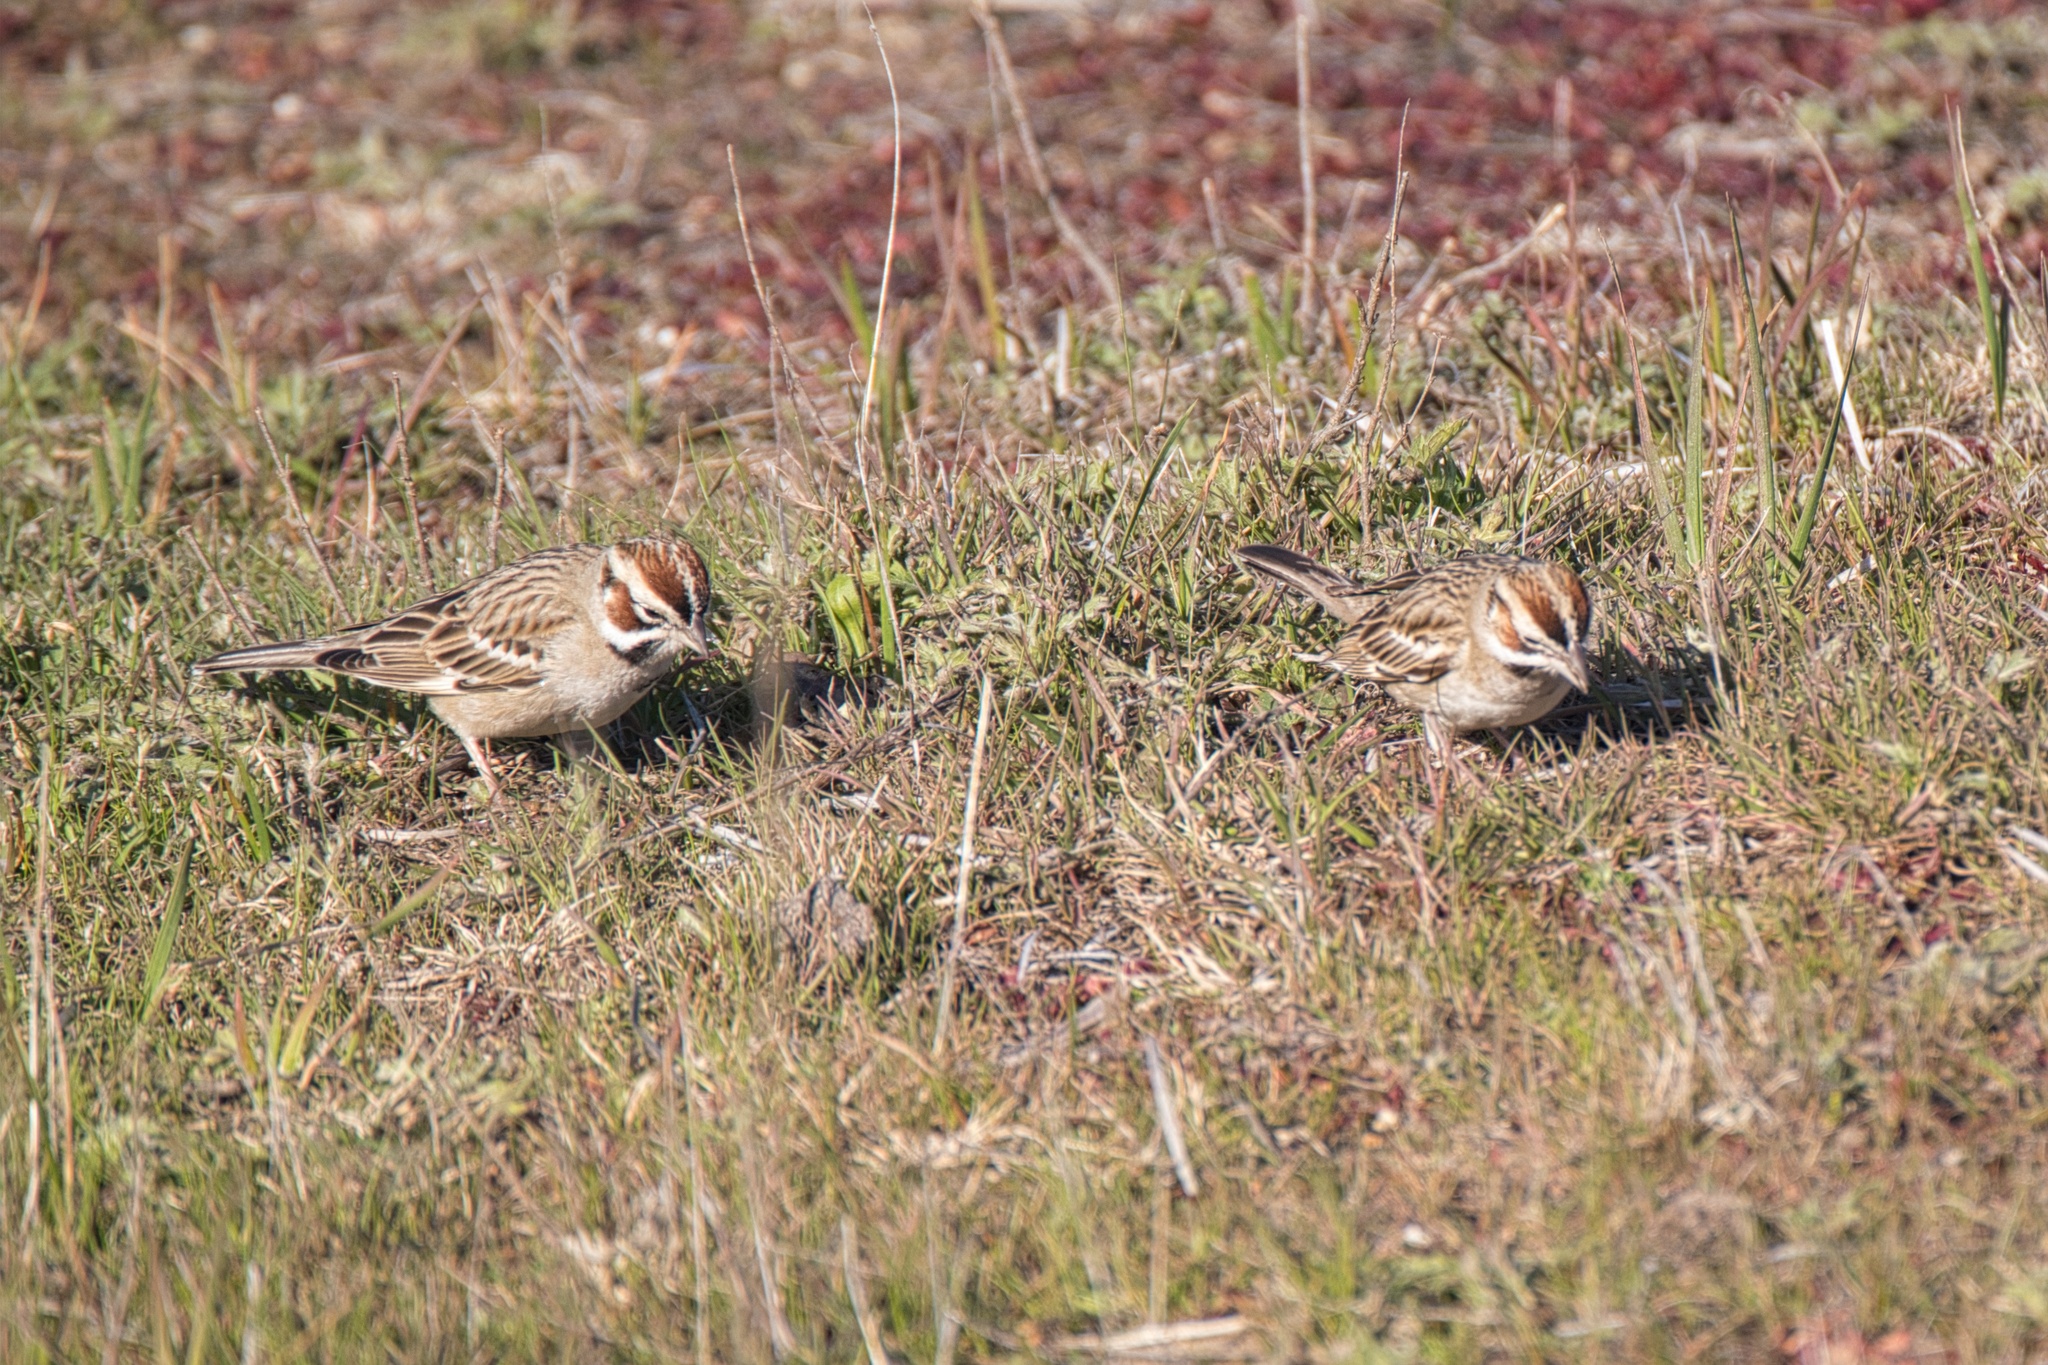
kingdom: Animalia
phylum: Chordata
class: Aves
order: Passeriformes
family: Passerellidae
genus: Chondestes
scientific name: Chondestes grammacus
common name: Lark sparrow
